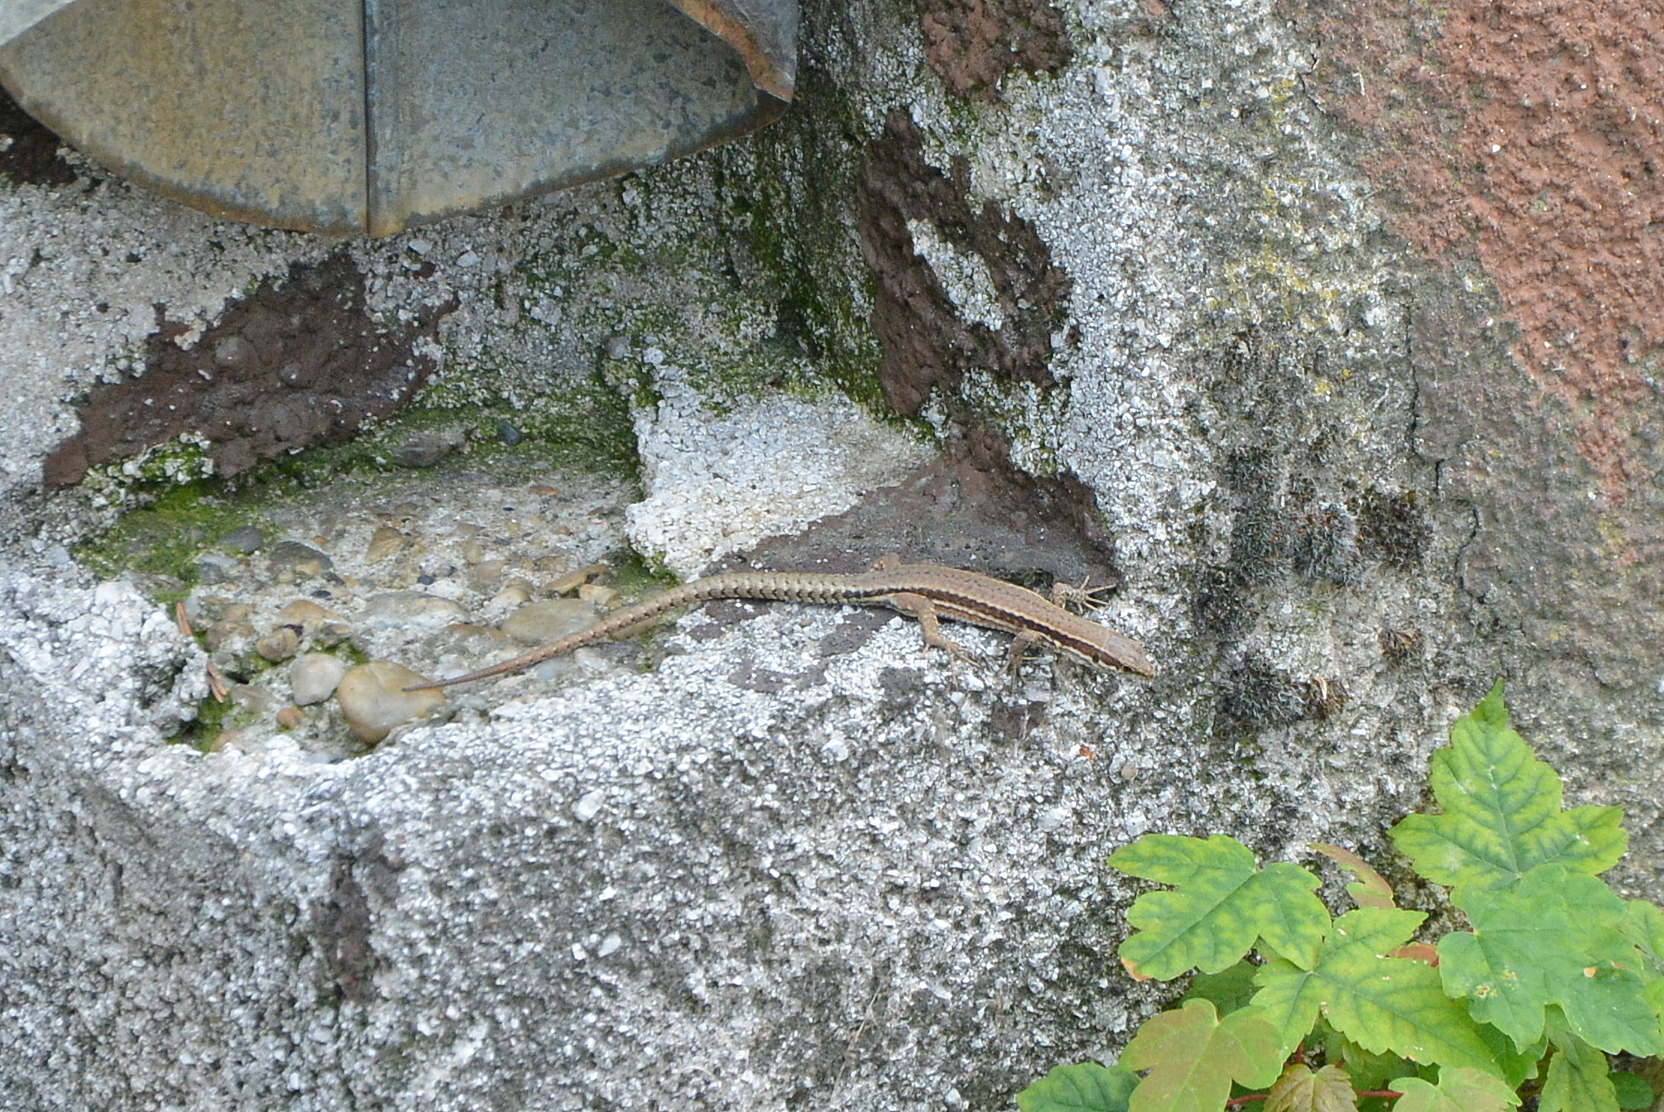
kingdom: Animalia
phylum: Chordata
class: Squamata
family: Lacertidae
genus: Podarcis
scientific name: Podarcis muralis
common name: Common wall lizard
